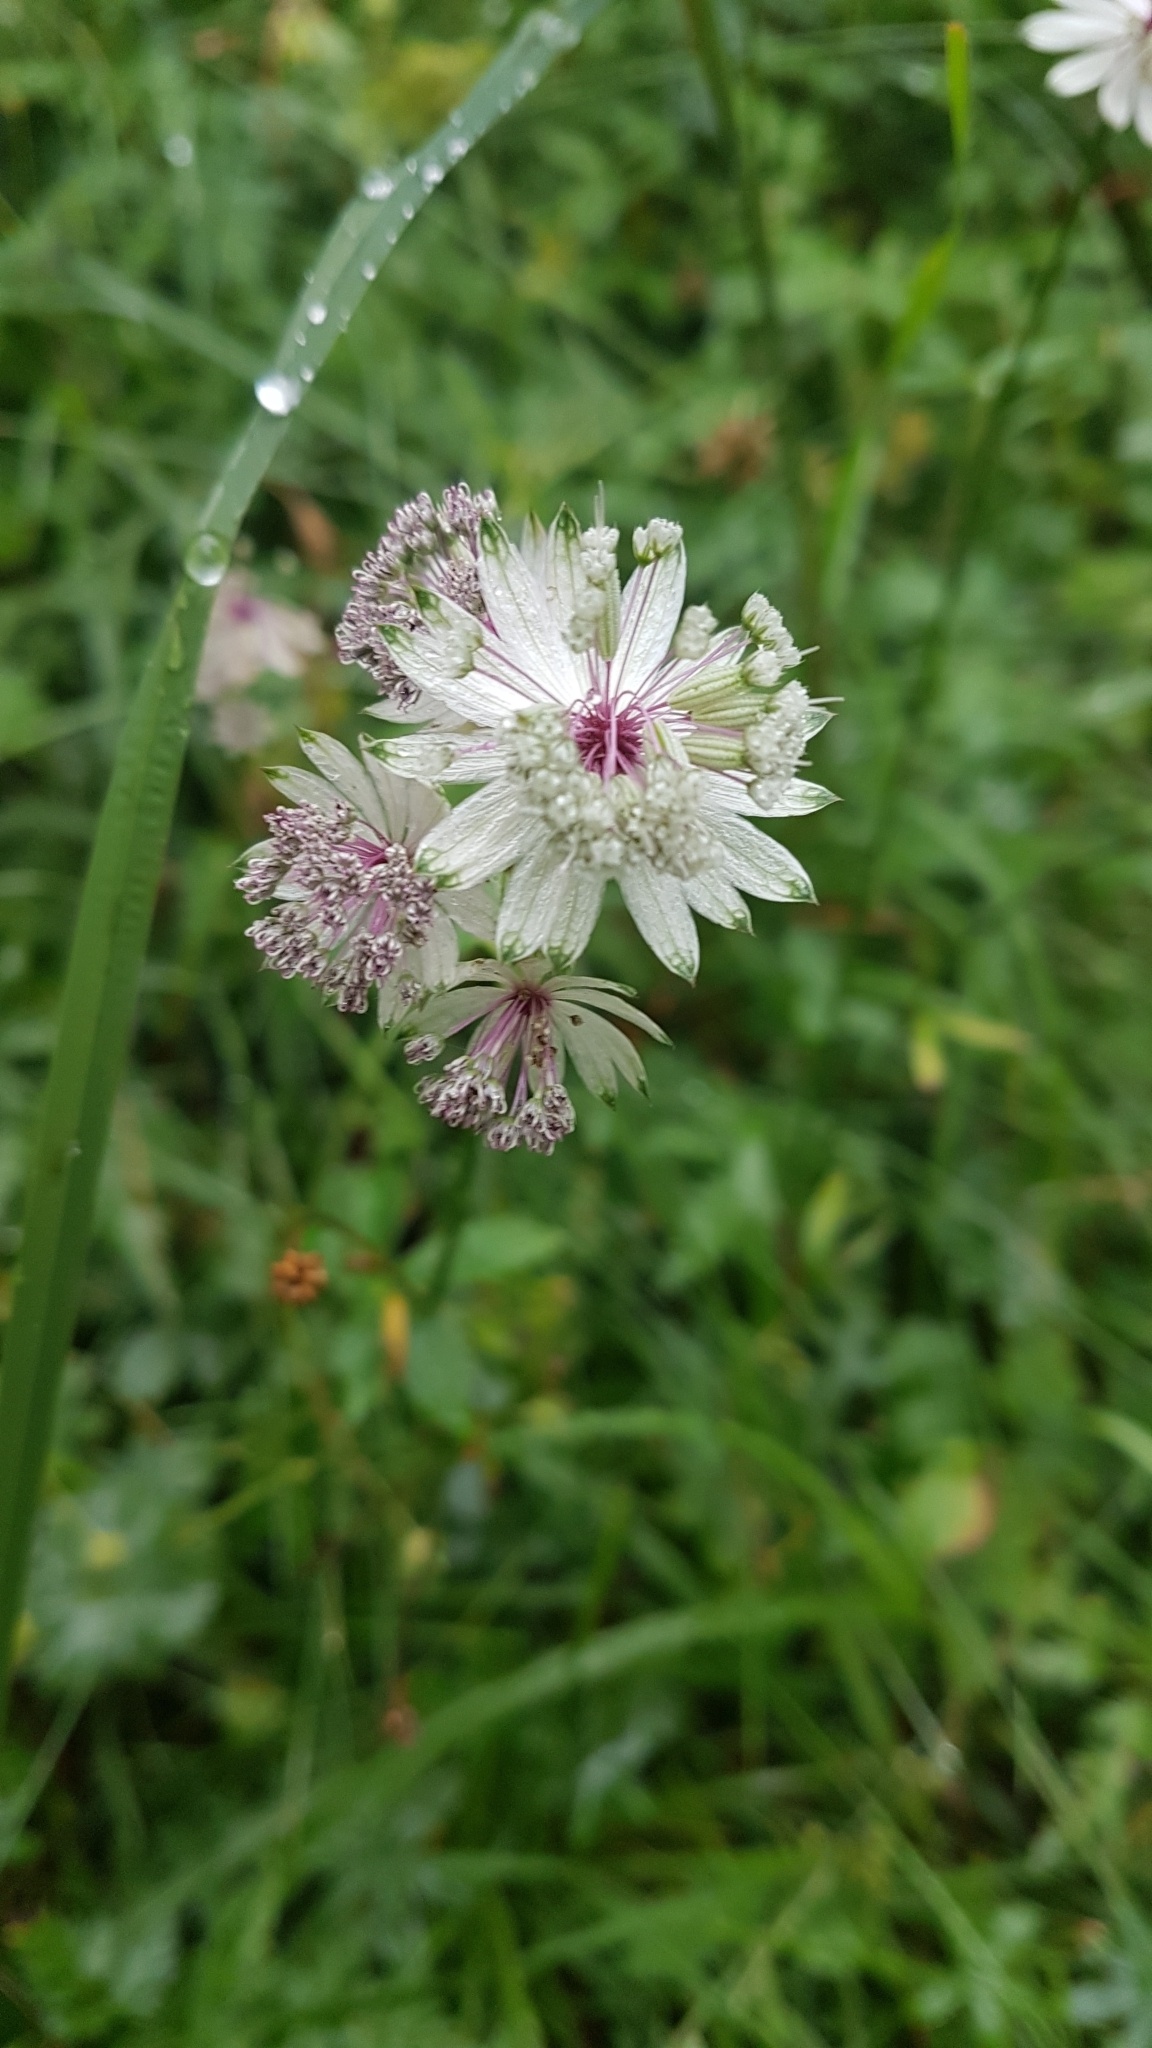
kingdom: Plantae
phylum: Tracheophyta
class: Magnoliopsida
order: Apiales
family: Apiaceae
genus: Astrantia
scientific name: Astrantia major
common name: Greater masterwort
